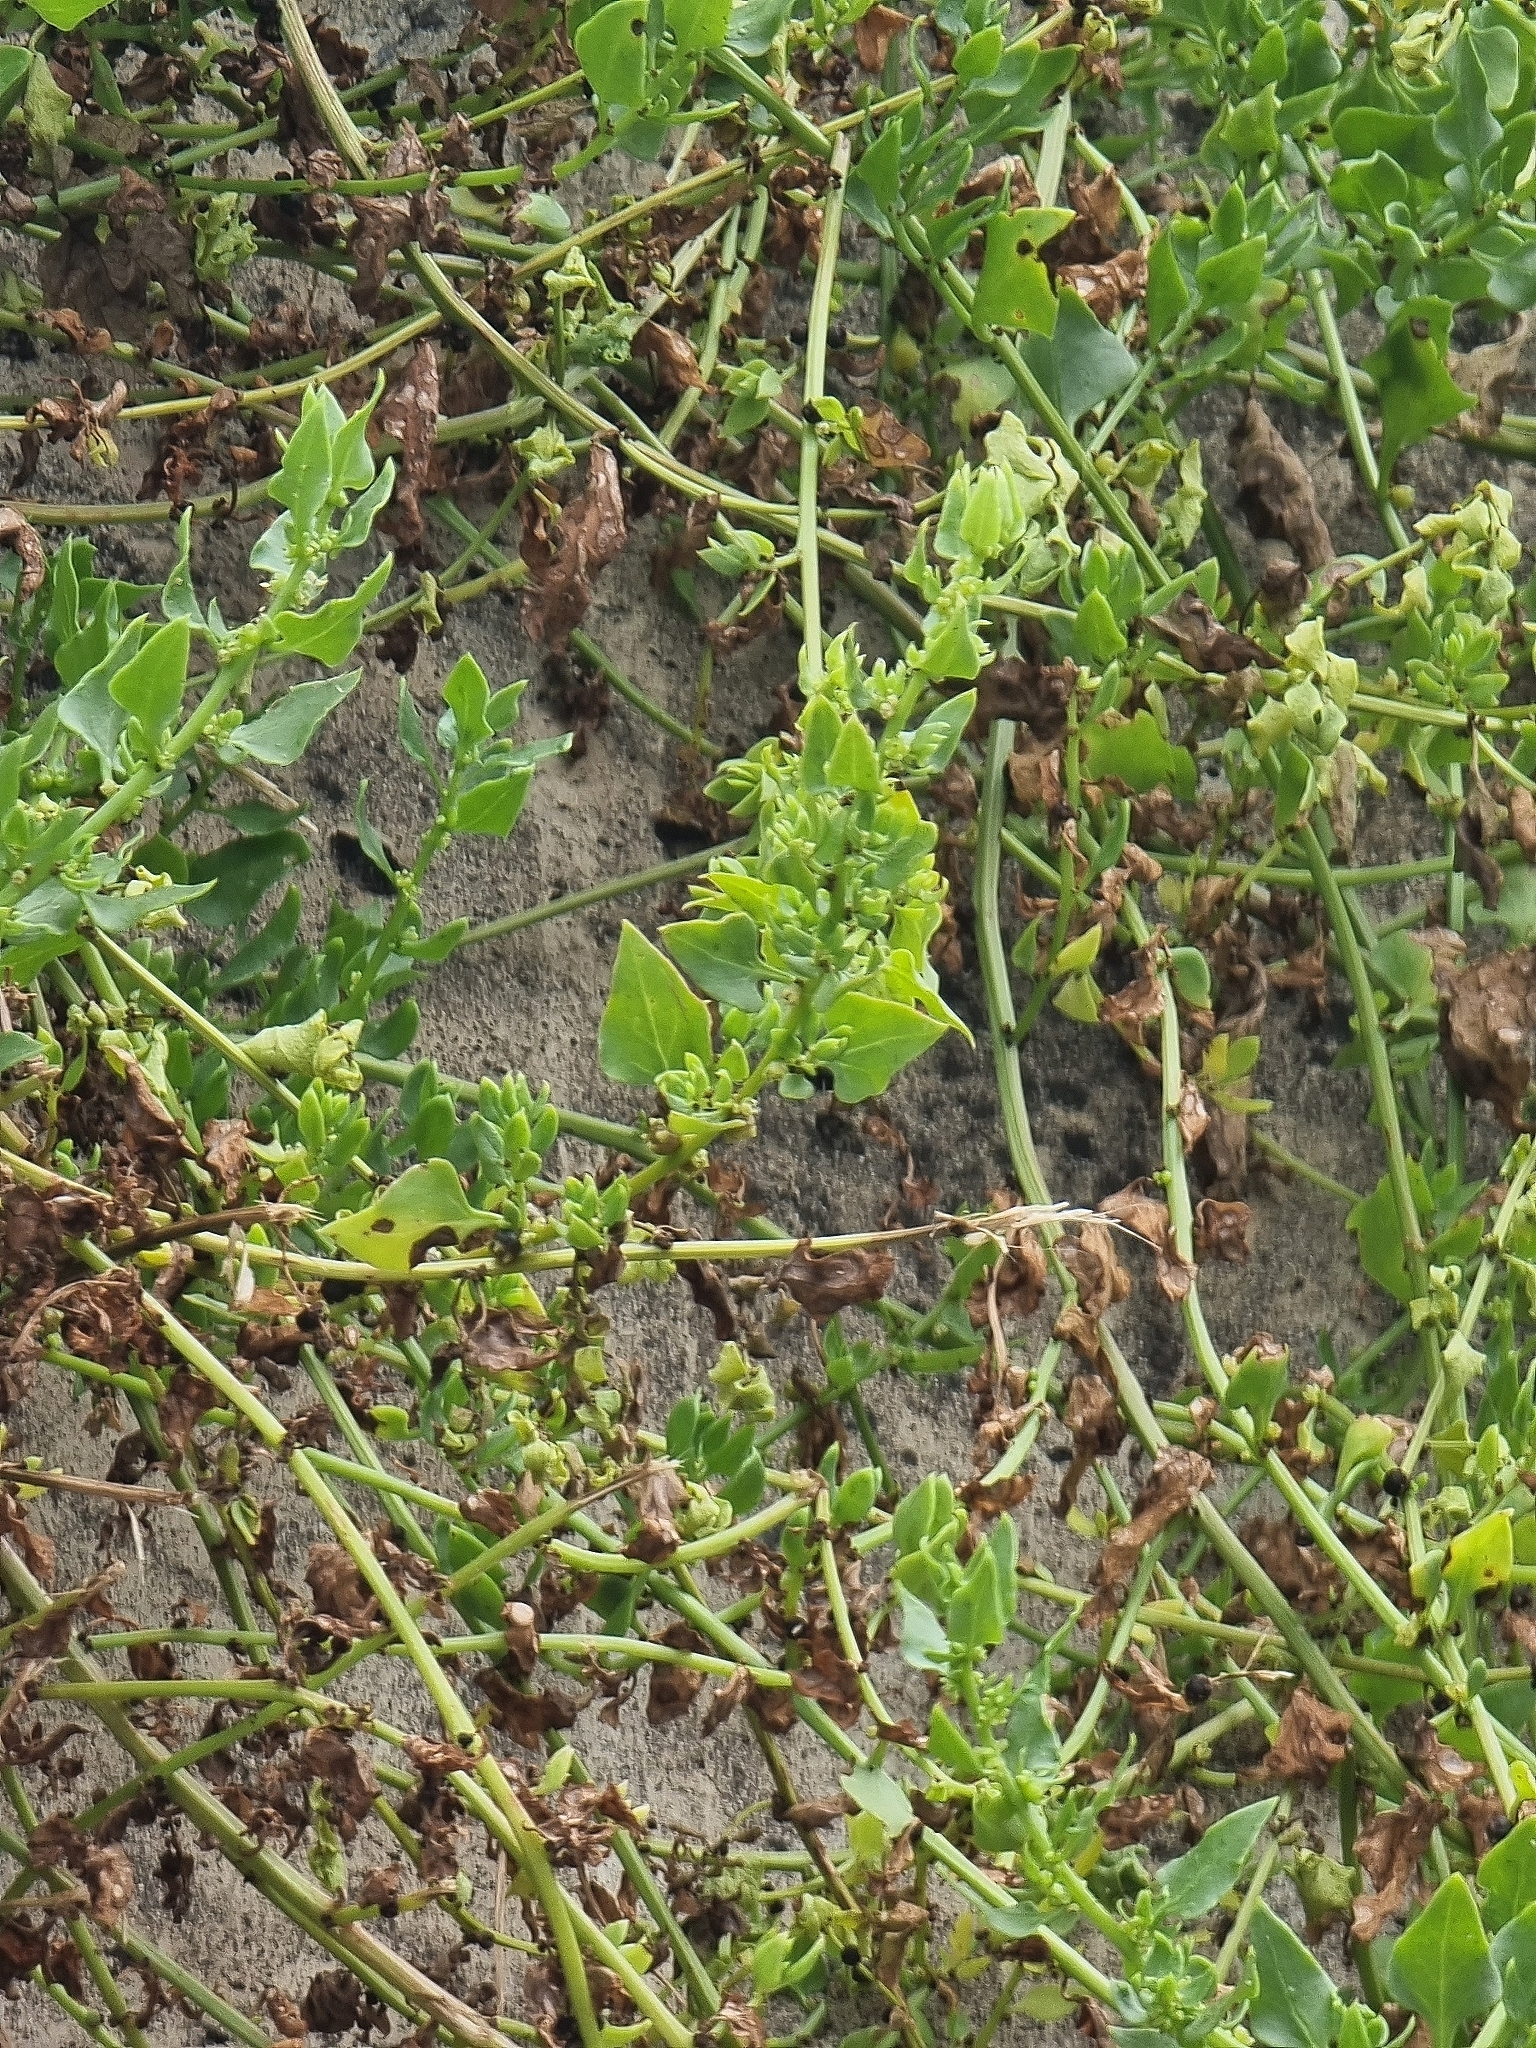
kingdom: Plantae
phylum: Tracheophyta
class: Magnoliopsida
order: Caryophyllales
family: Amaranthaceae
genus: Patellifolia
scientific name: Patellifolia procumbens
